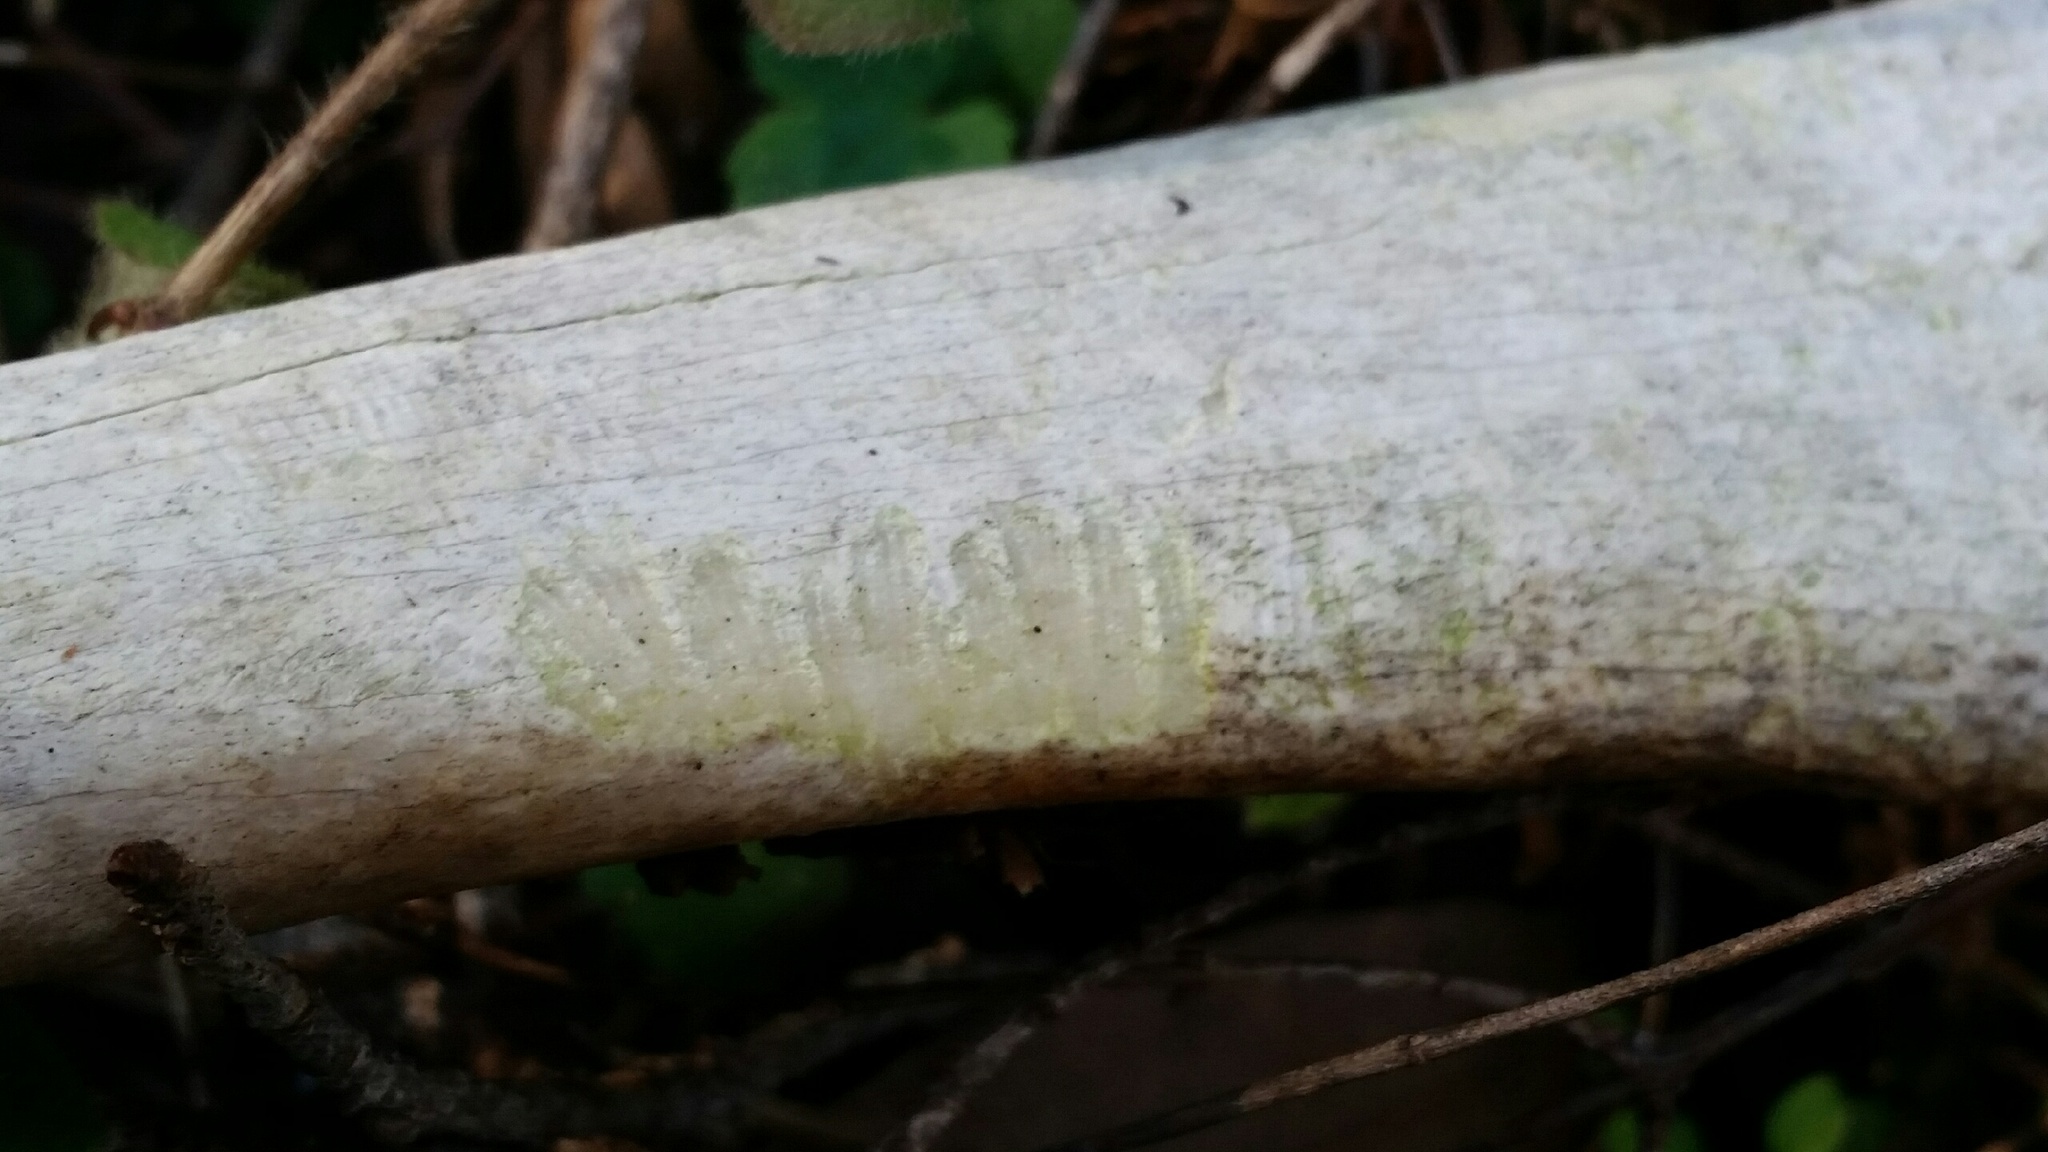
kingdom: Animalia
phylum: Chordata
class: Mammalia
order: Artiodactyla
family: Cervidae
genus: Odocoileus
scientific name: Odocoileus hemionus
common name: Mule deer
